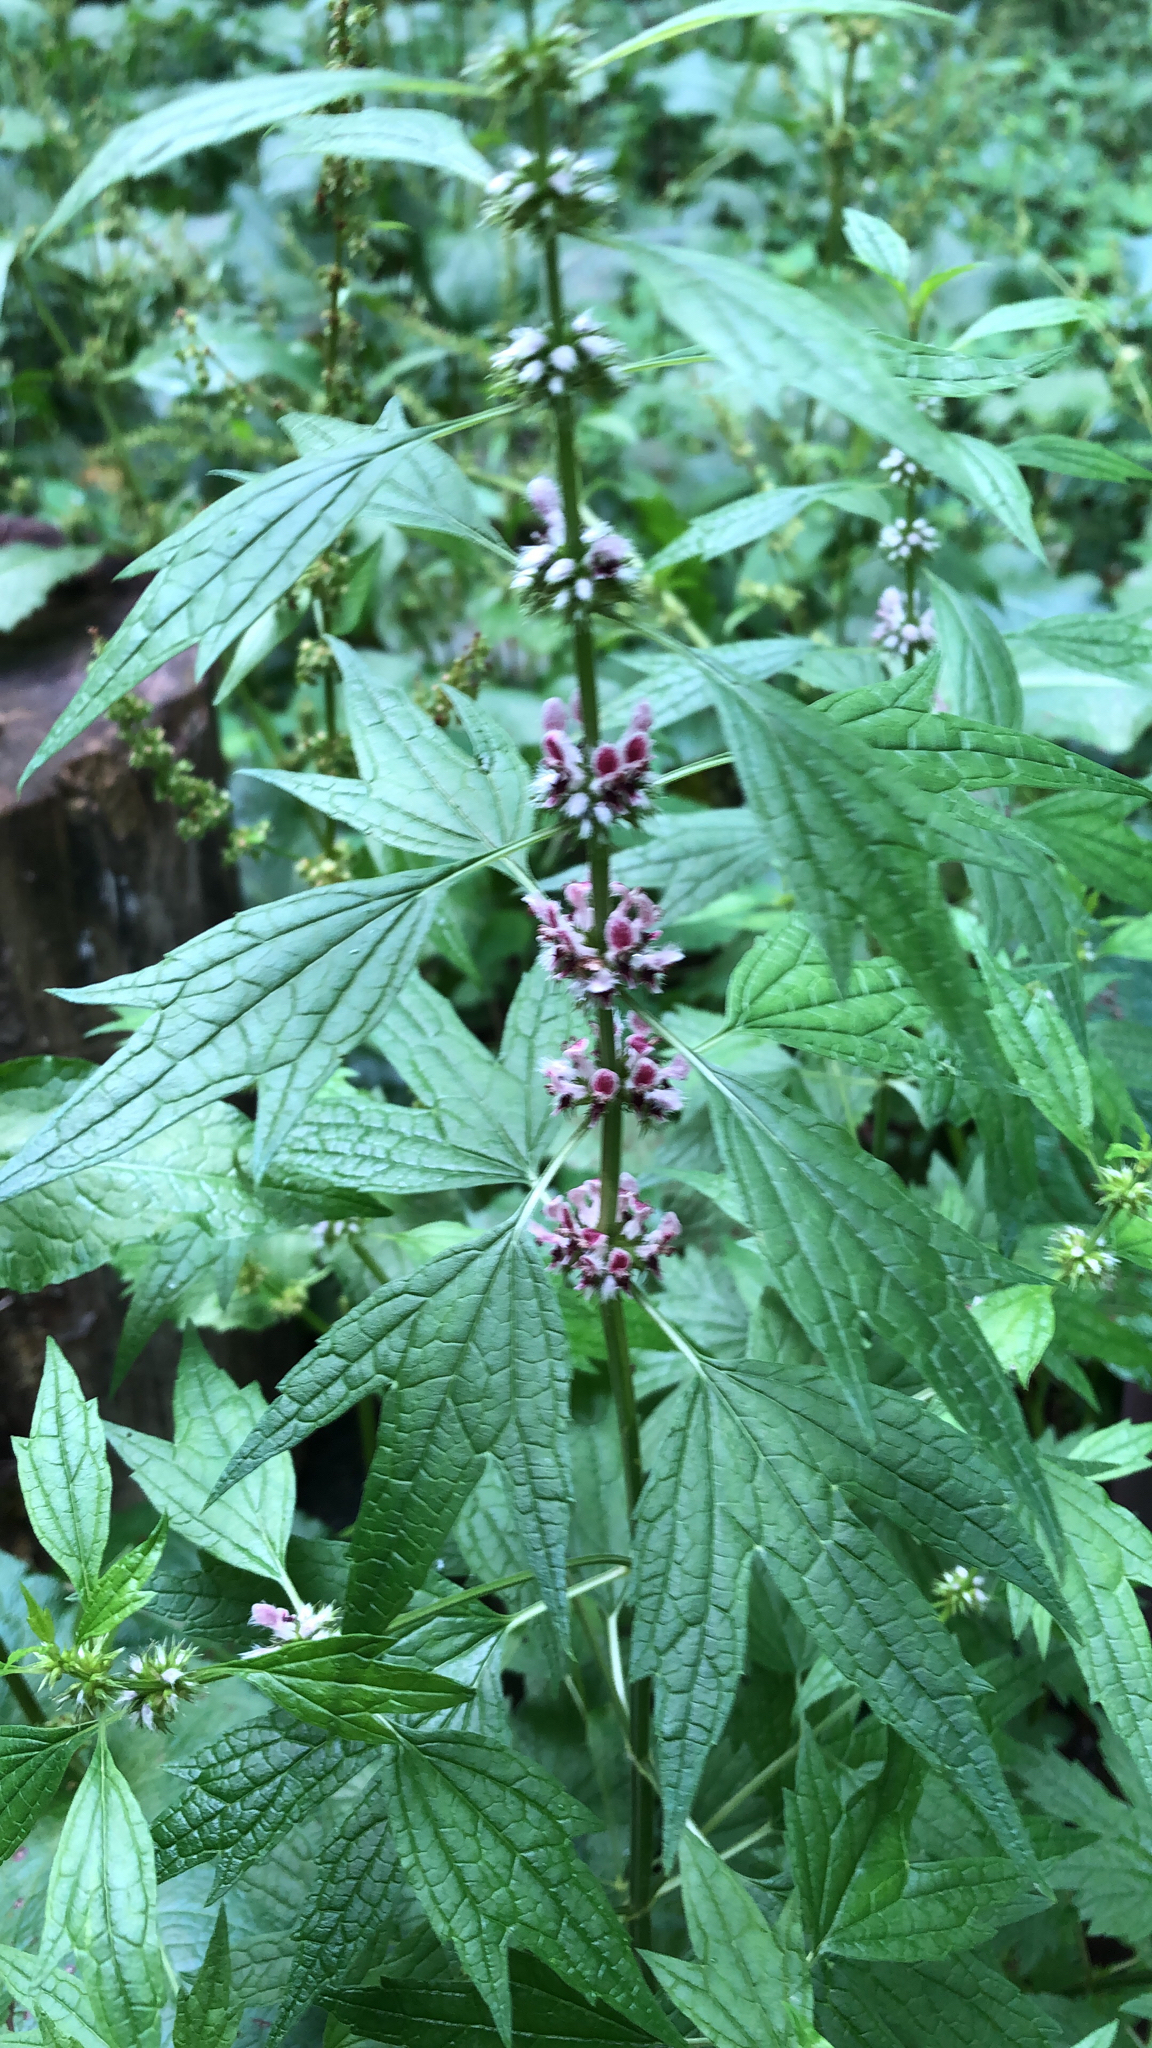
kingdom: Plantae
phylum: Tracheophyta
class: Magnoliopsida
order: Lamiales
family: Lamiaceae
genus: Leonurus
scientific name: Leonurus cardiaca
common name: Motherwort
